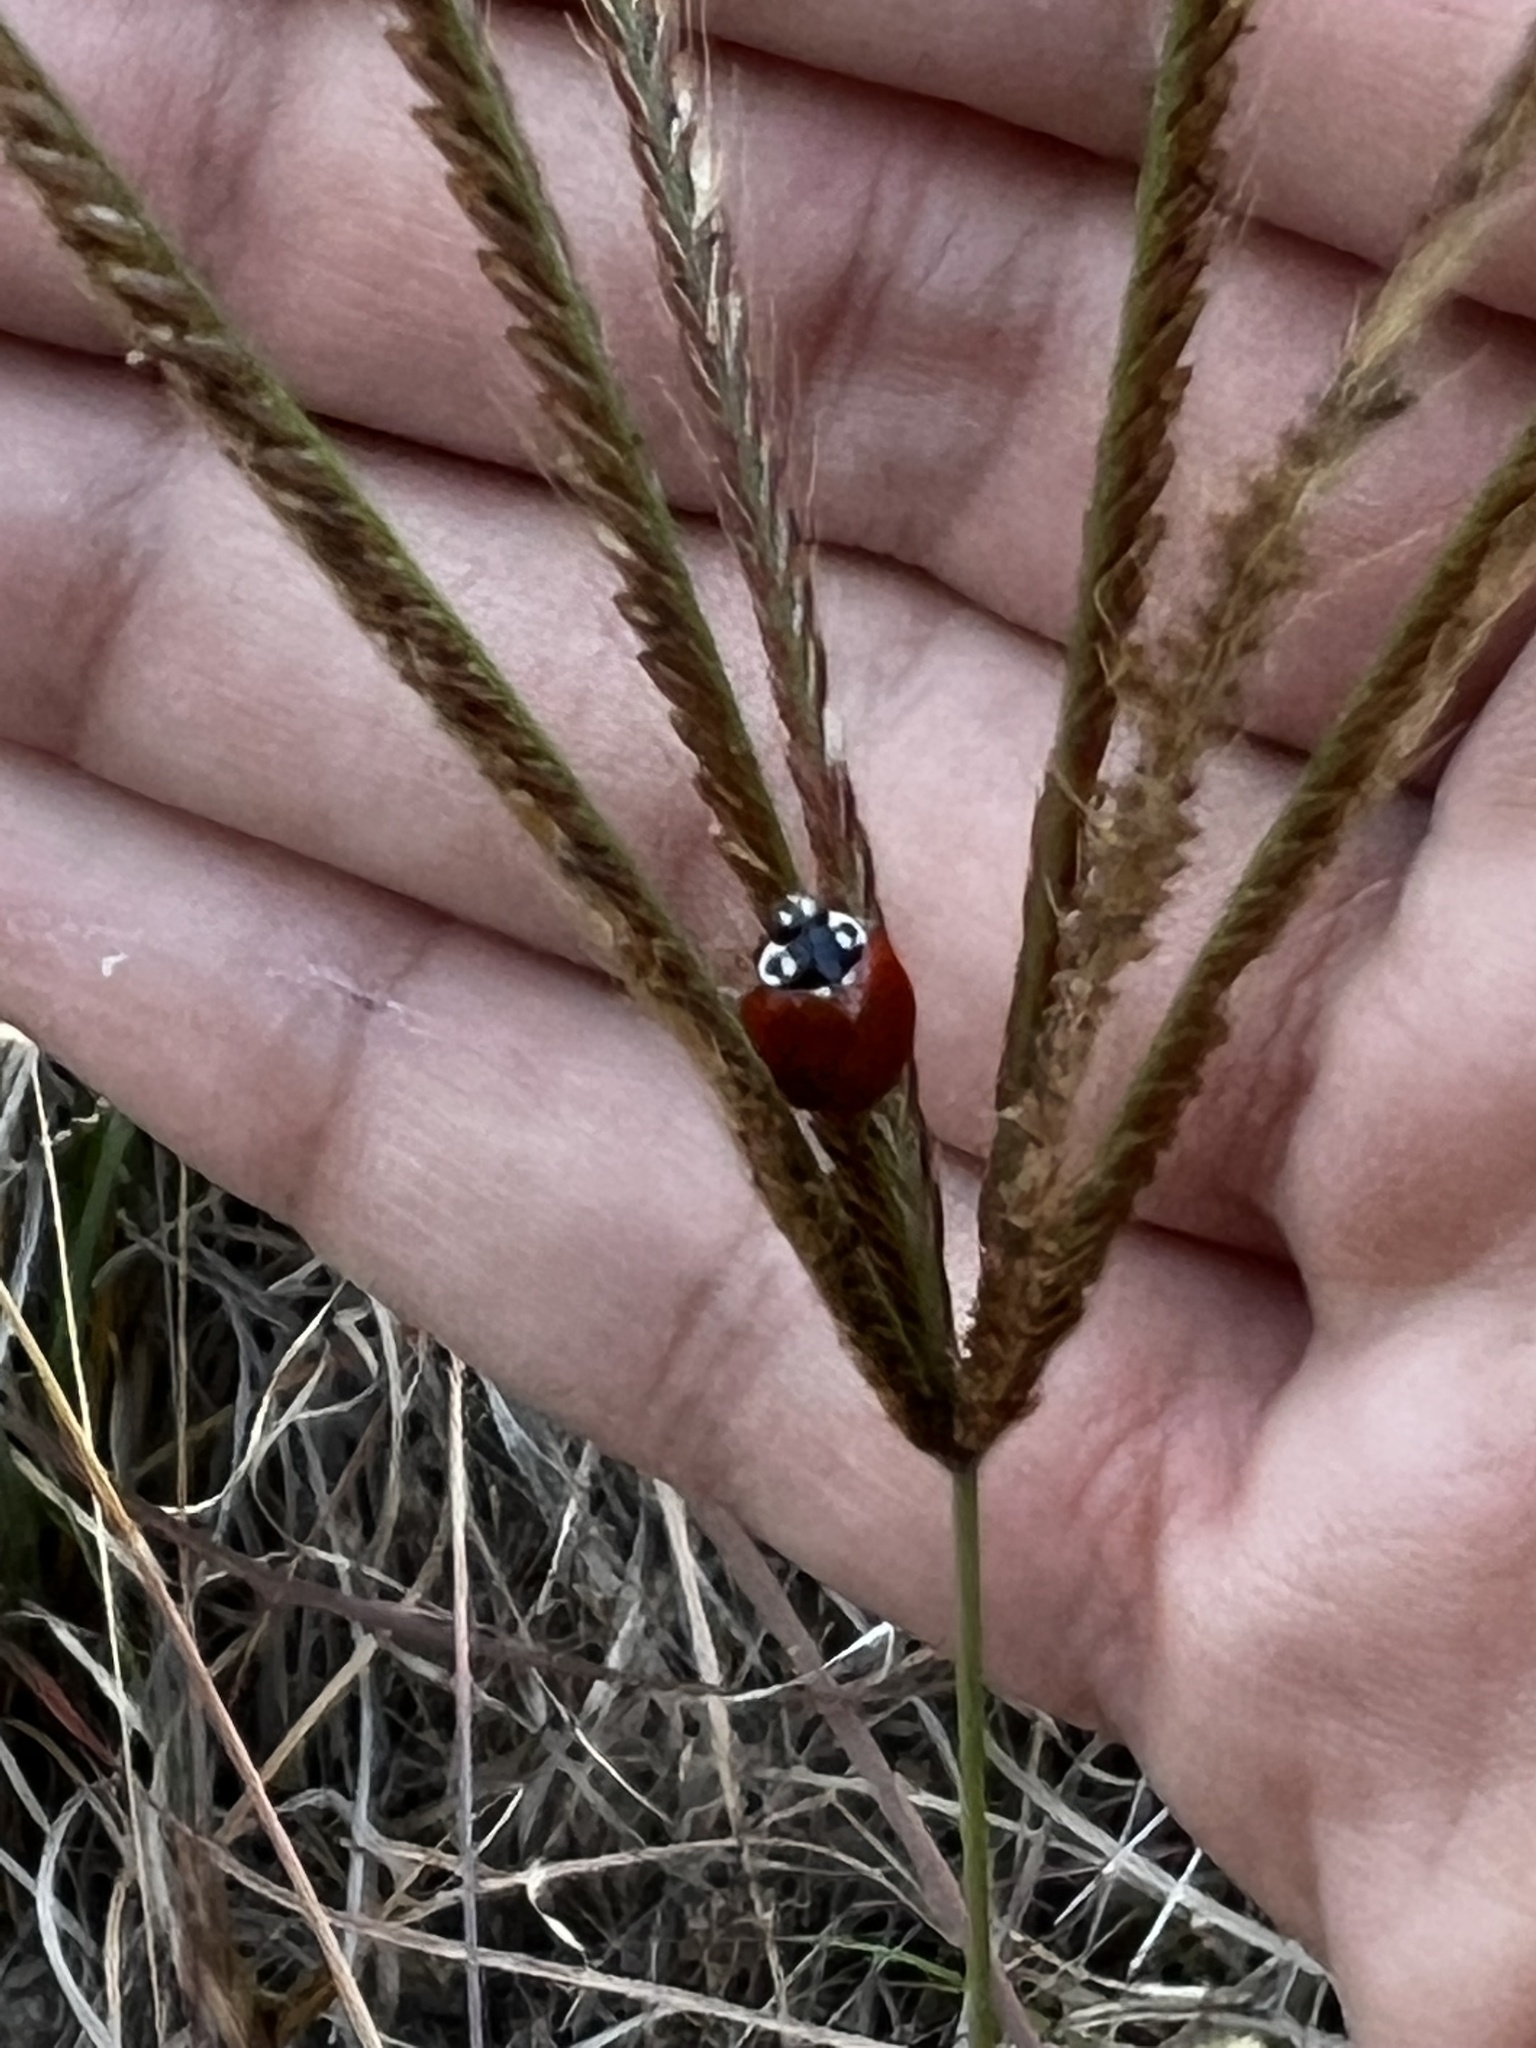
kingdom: Animalia
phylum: Arthropoda
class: Insecta
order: Coleoptera
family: Coccinellidae
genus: Cycloneda
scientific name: Cycloneda sanguinea
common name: Ladybird beetle
